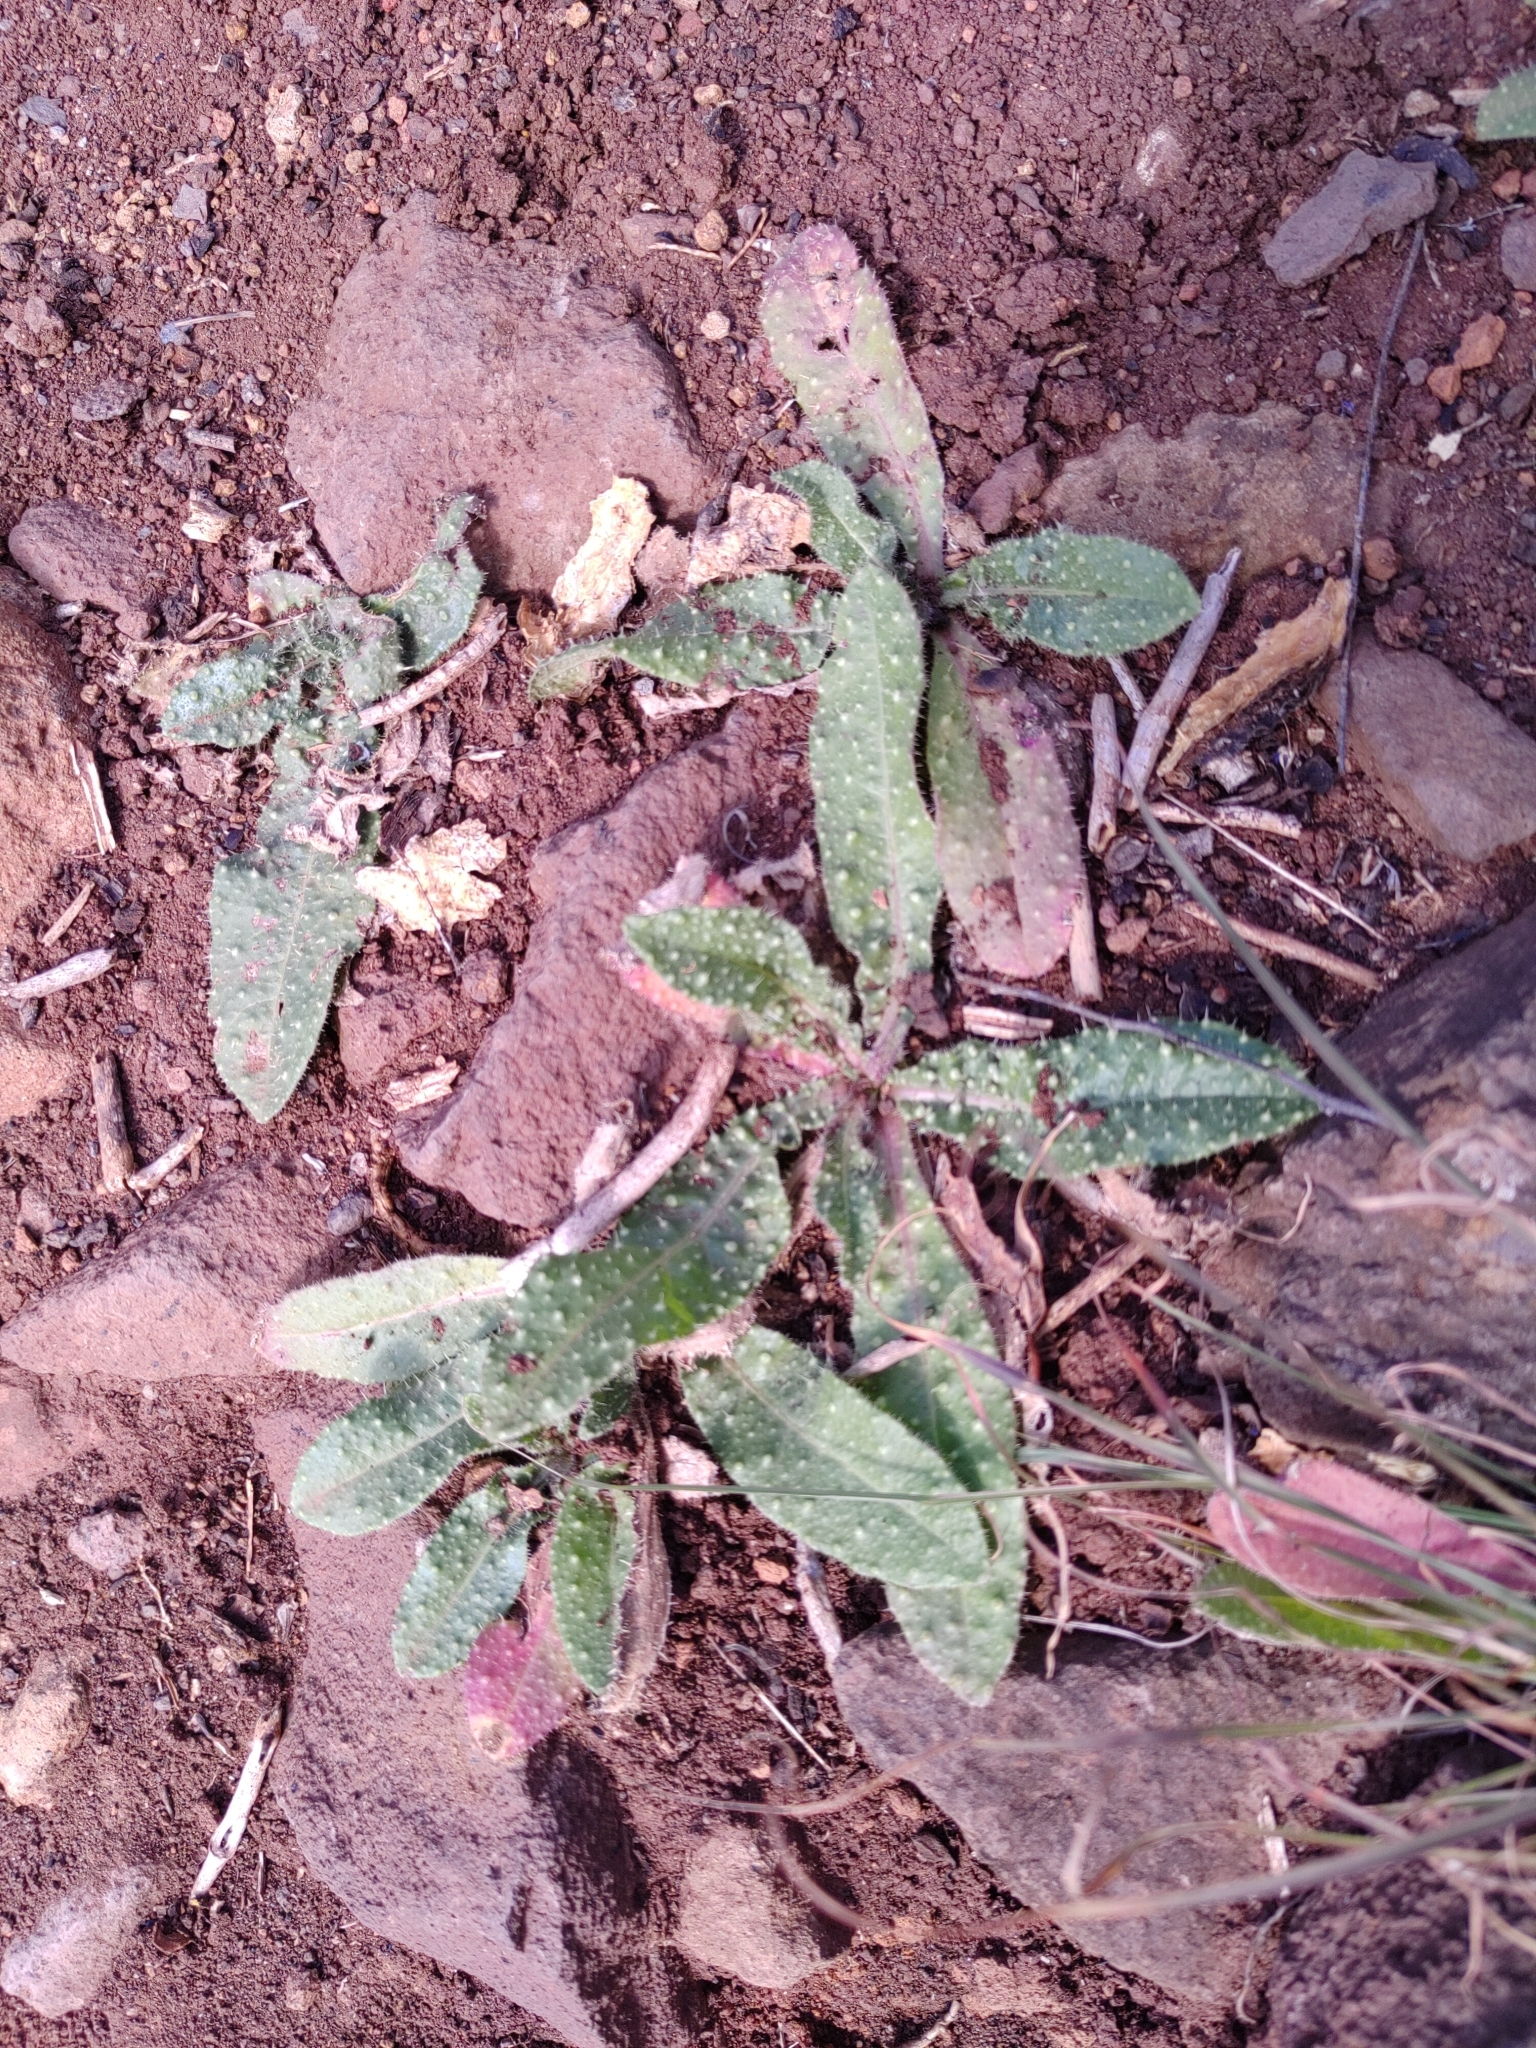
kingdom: Plantae
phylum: Tracheophyta
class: Magnoliopsida
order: Asterales
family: Asteraceae
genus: Helminthotheca
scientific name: Helminthotheca echioides
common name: Ox-tongue
